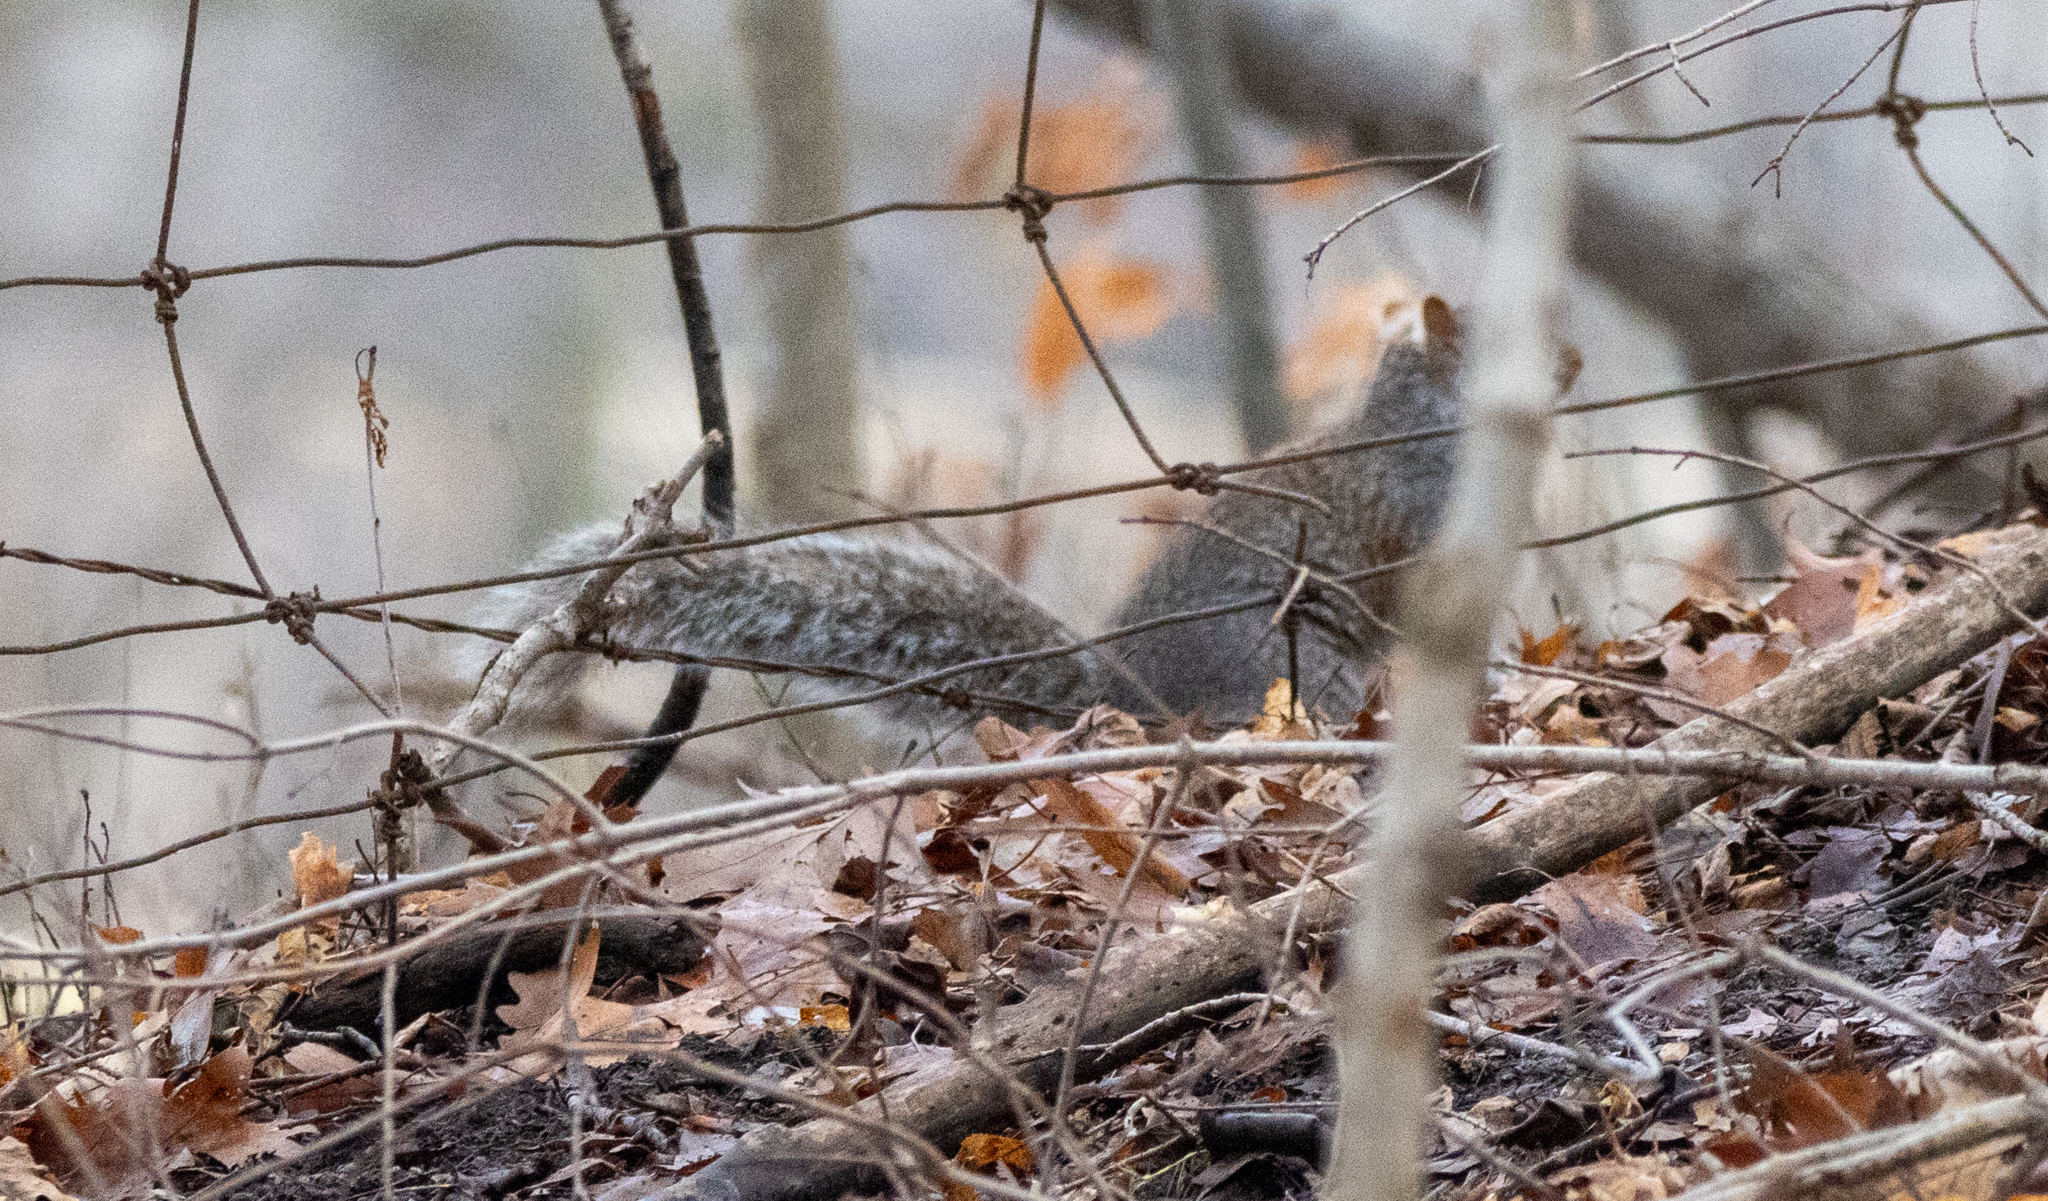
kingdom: Animalia
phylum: Chordata
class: Mammalia
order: Rodentia
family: Sciuridae
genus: Sciurus
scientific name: Sciurus carolinensis
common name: Eastern gray squirrel
